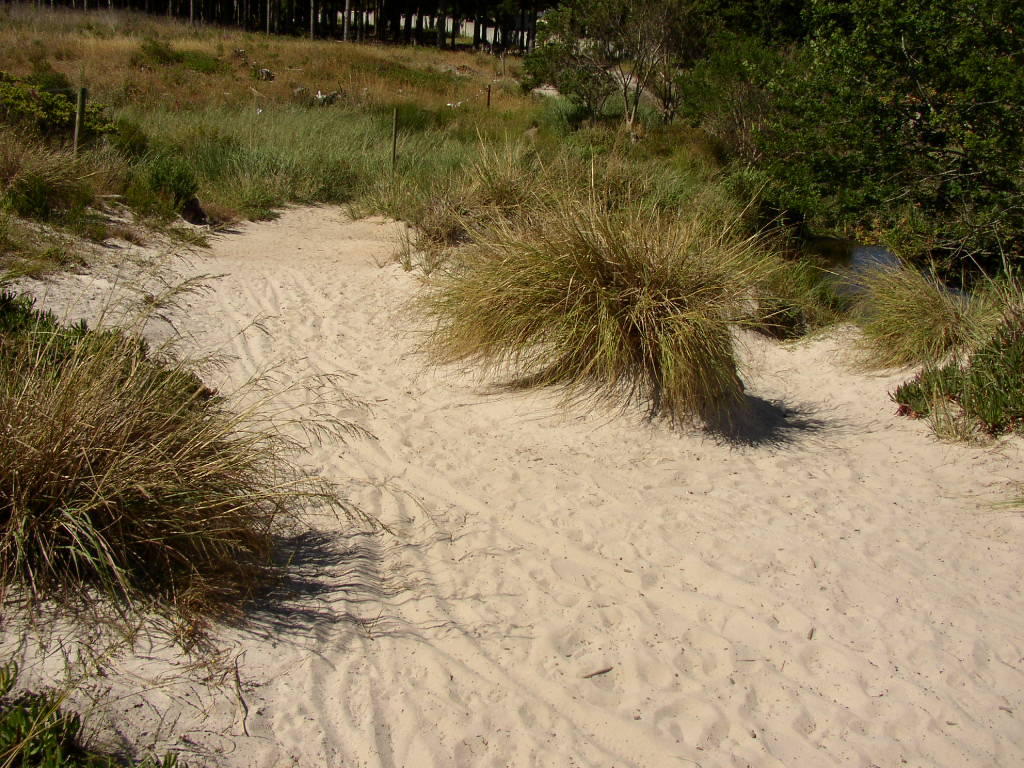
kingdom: Plantae
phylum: Tracheophyta
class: Liliopsida
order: Poales
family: Poaceae
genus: Eragrostis
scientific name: Eragrostis curvula
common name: African love-grass
